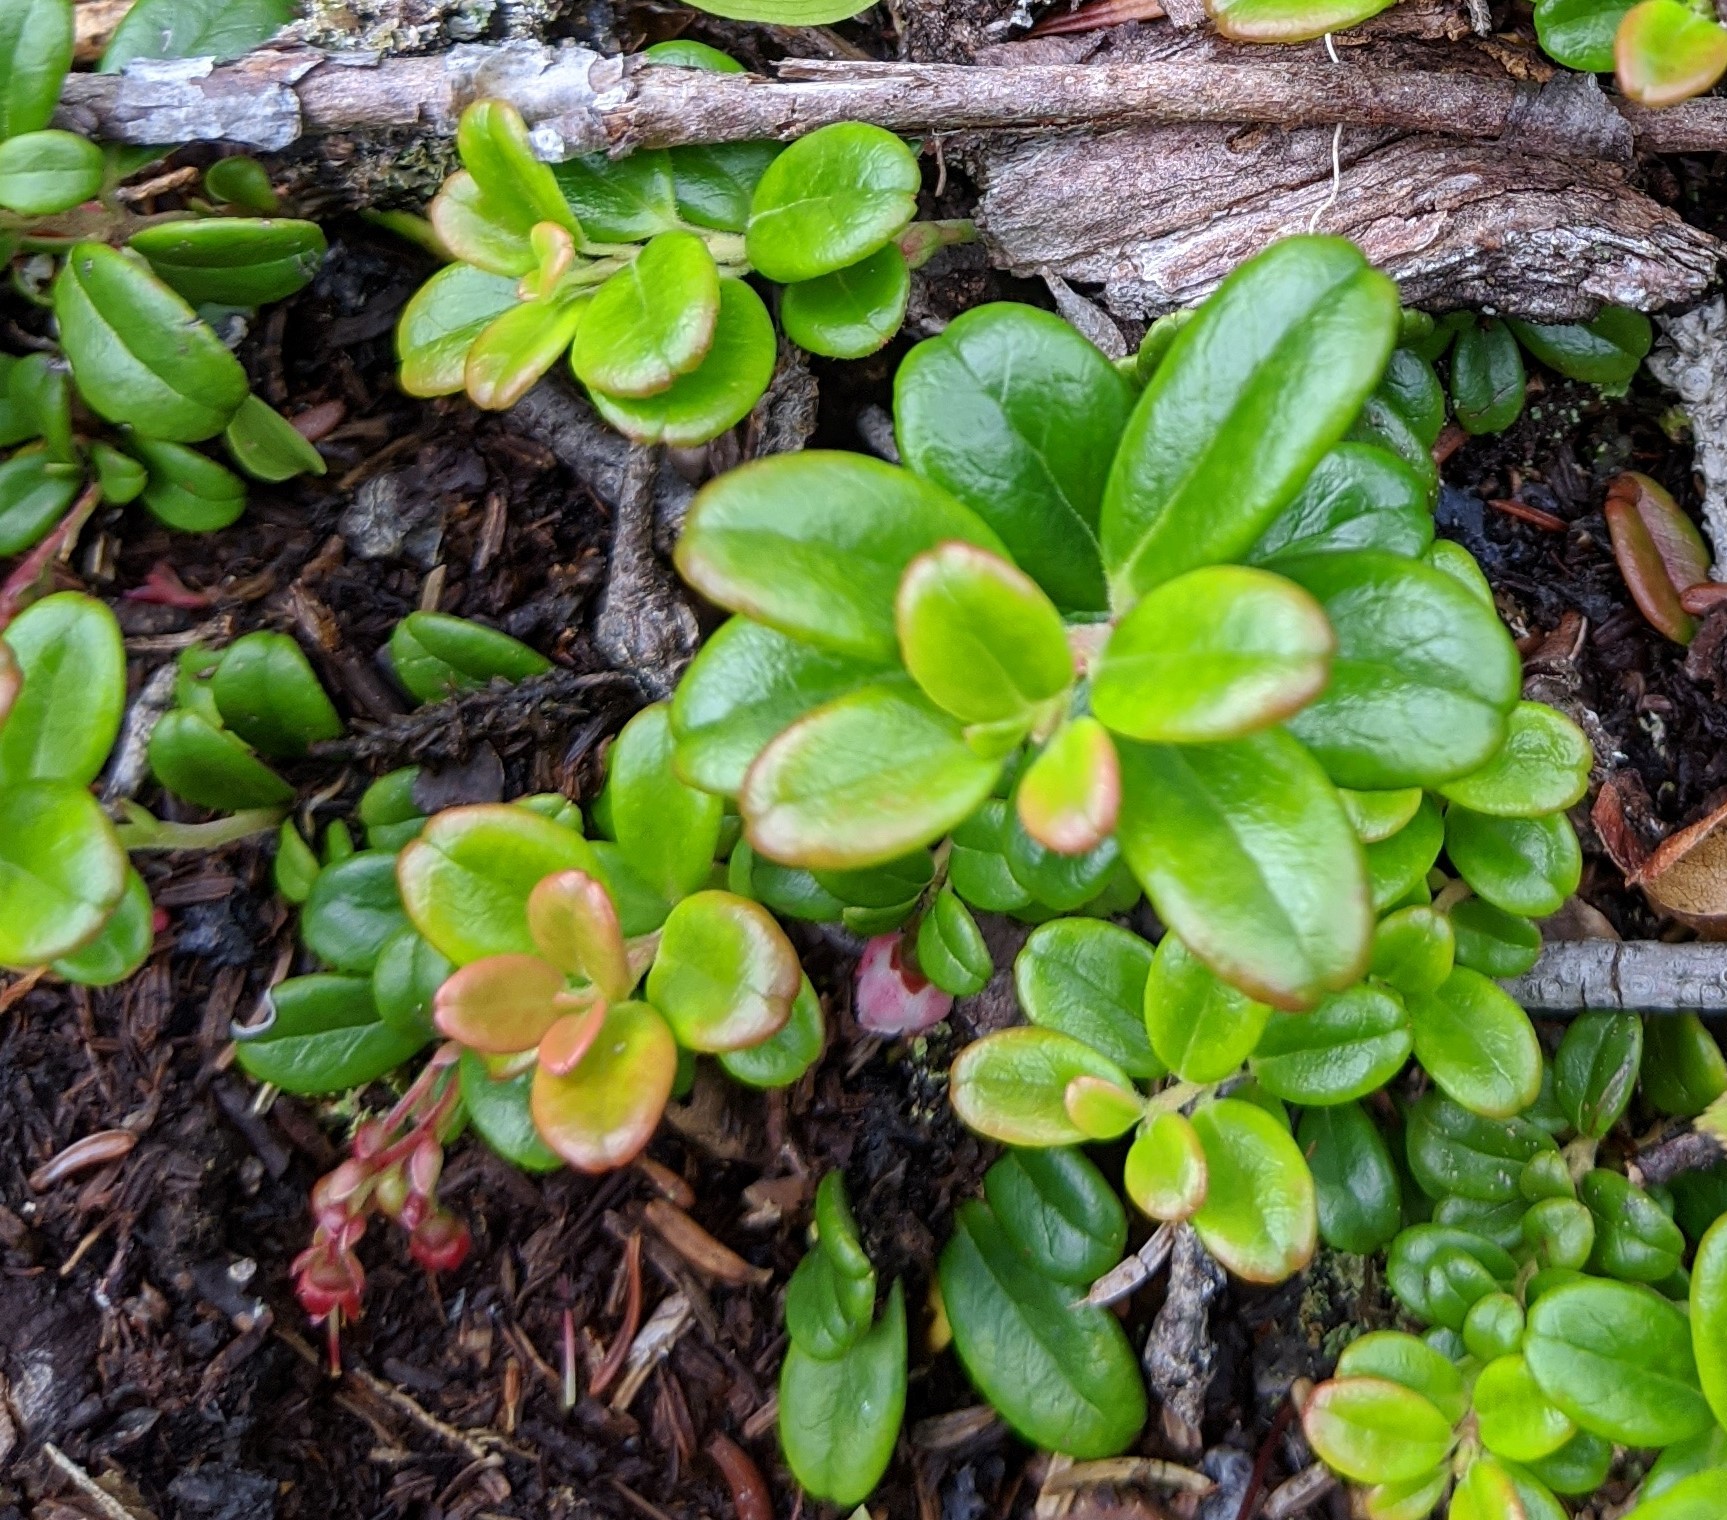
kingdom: Plantae
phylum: Tracheophyta
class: Magnoliopsida
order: Ericales
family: Ericaceae
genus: Vaccinium
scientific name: Vaccinium vitis-idaea
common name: Cowberry
